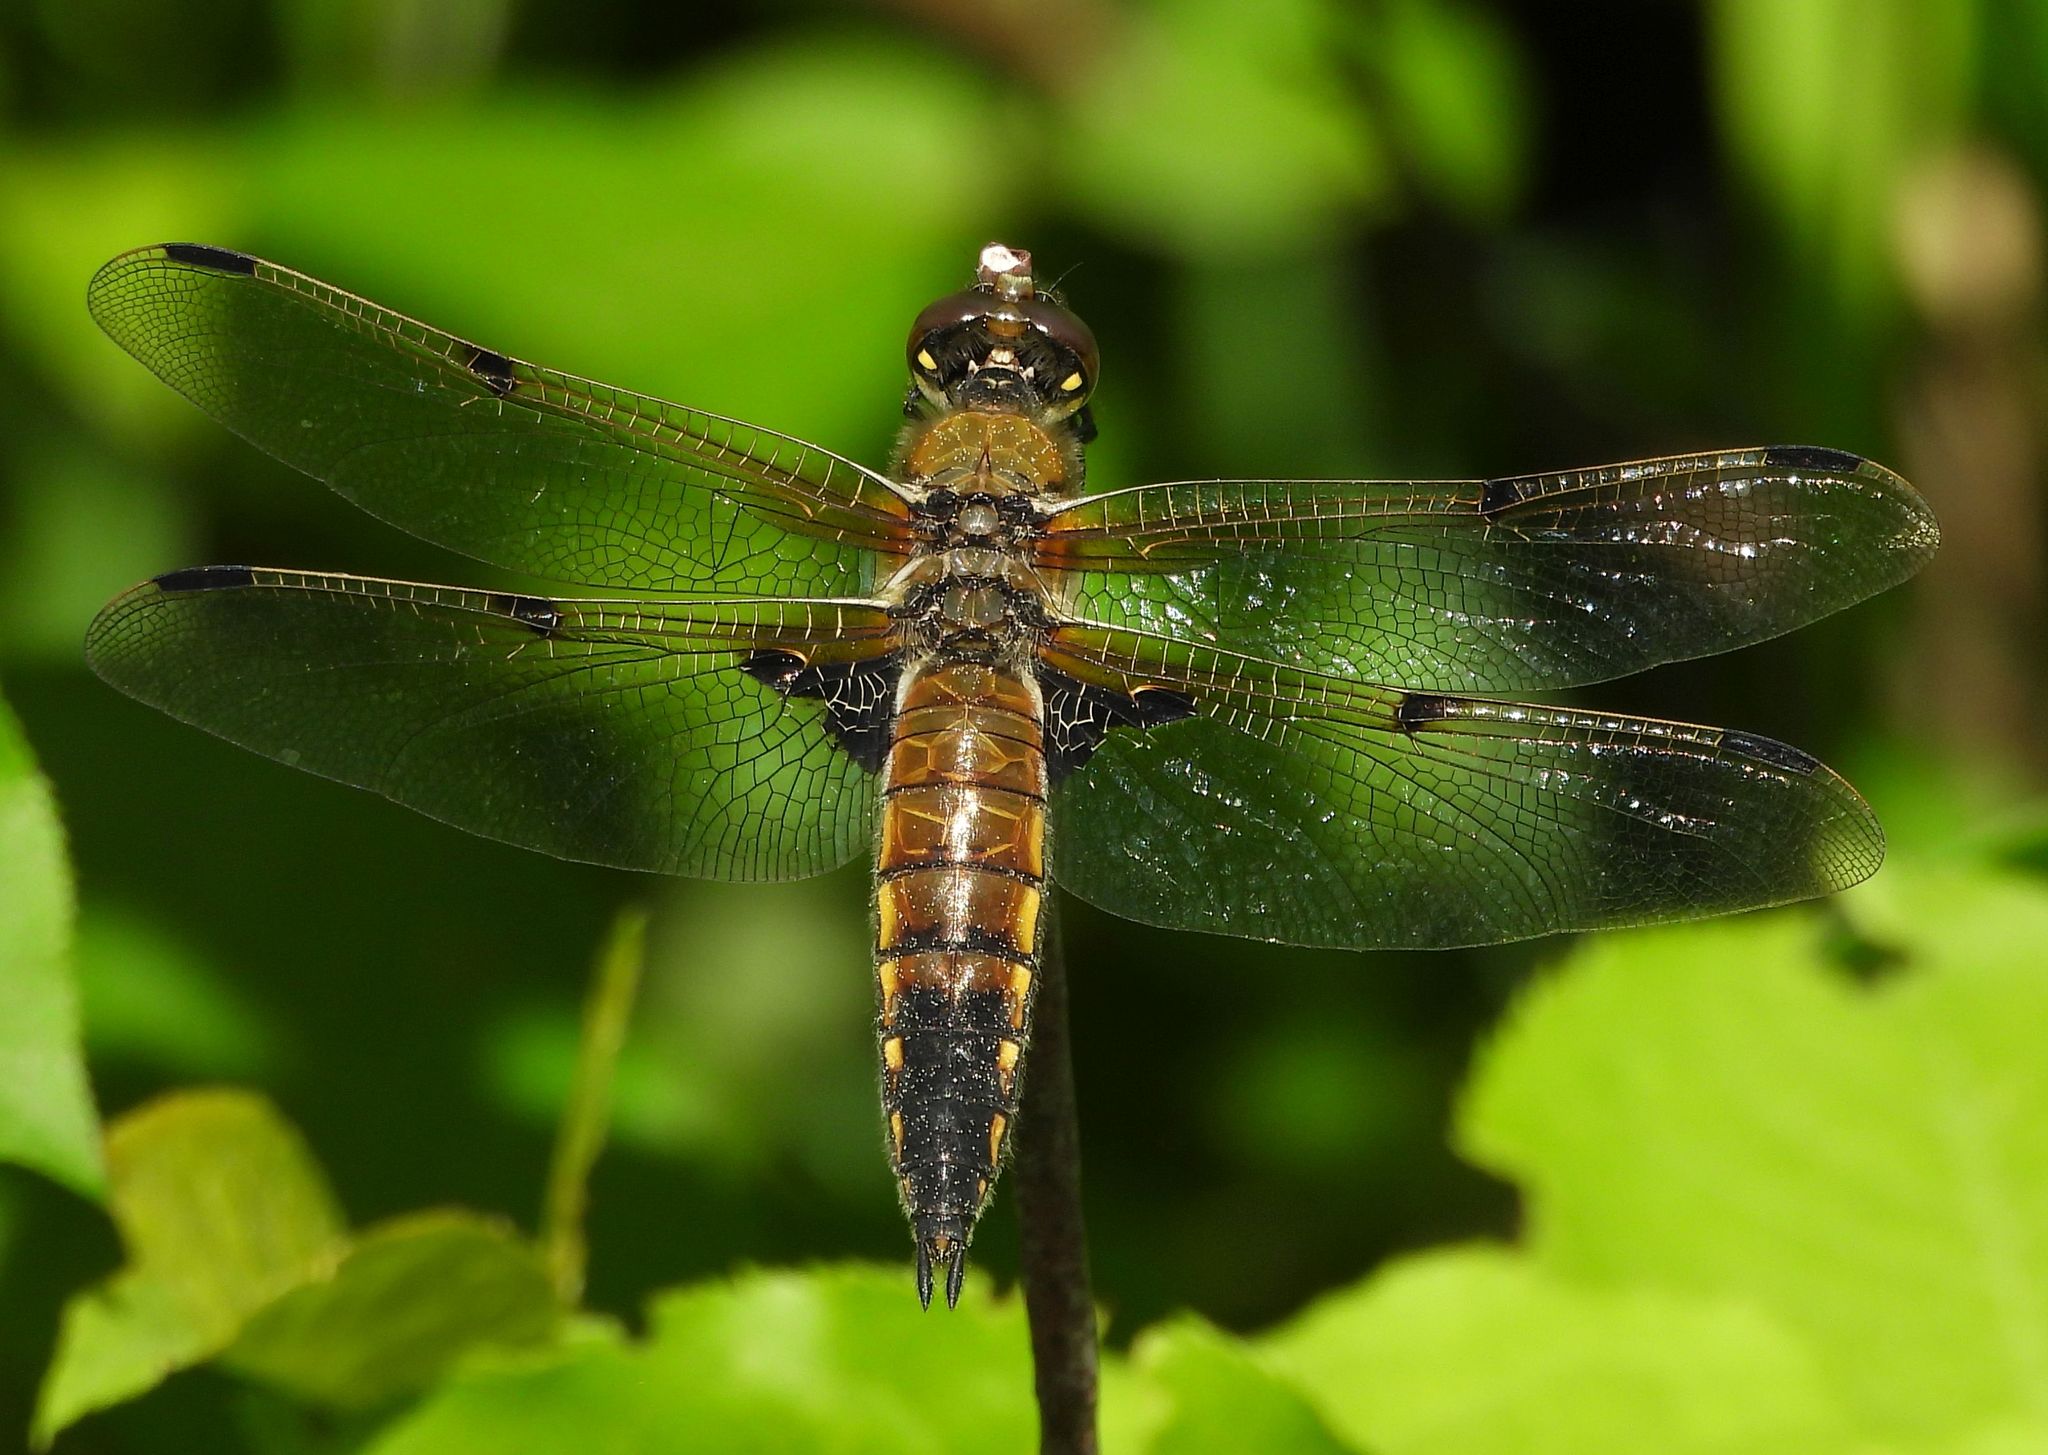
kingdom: Animalia
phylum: Arthropoda
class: Insecta
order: Odonata
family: Libellulidae
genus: Libellula
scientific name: Libellula quadrimaculata
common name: Four-spotted chaser
